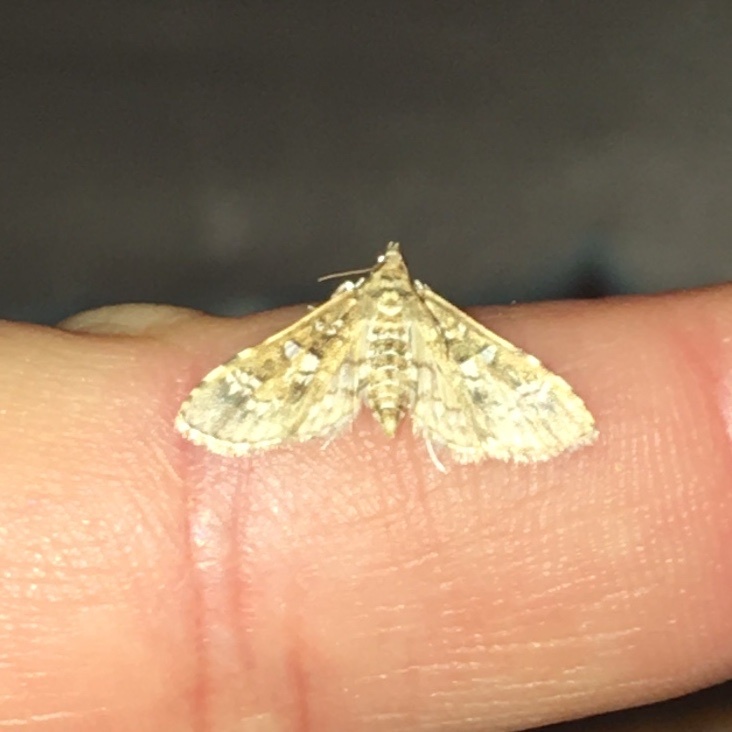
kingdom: Animalia
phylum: Arthropoda
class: Insecta
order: Lepidoptera
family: Crambidae
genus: Samea
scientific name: Samea multiplicalis
